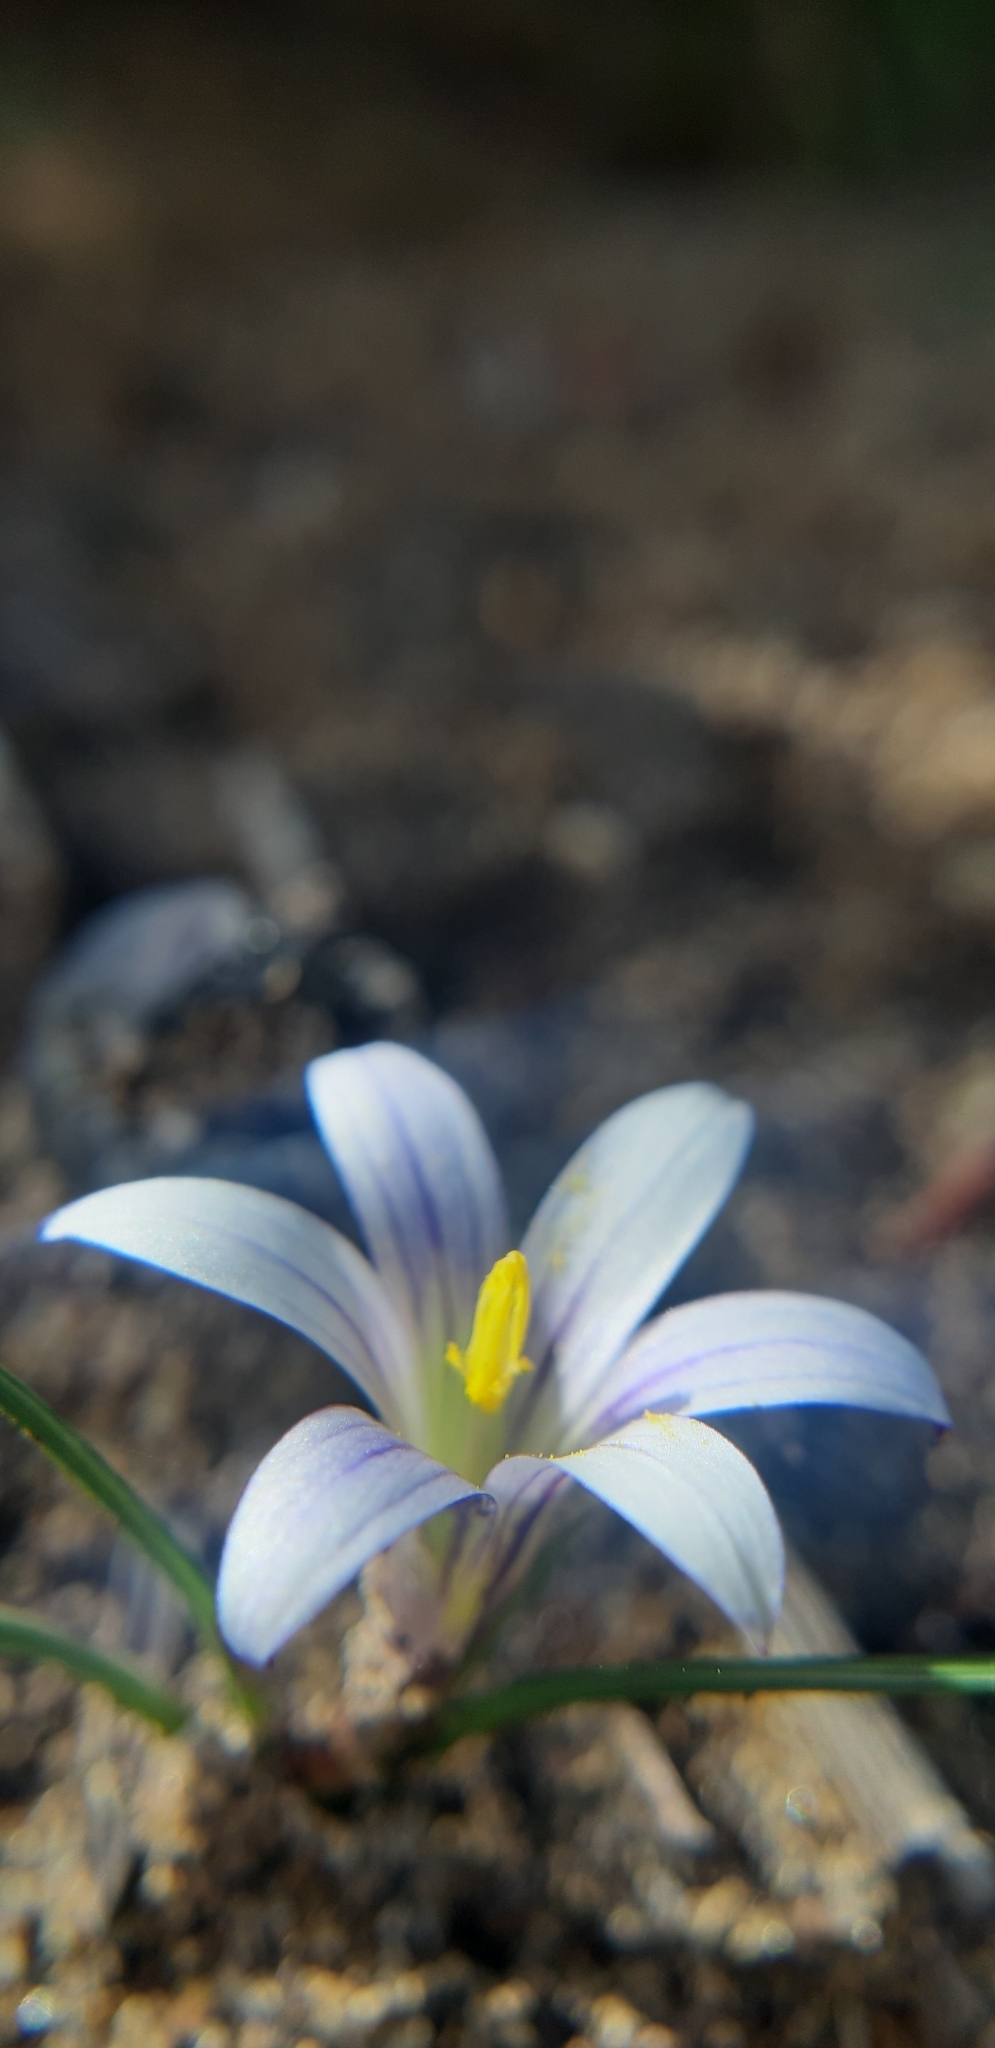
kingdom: Plantae
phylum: Tracheophyta
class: Liliopsida
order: Asparagales
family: Iridaceae
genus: Romulea
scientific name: Romulea columnae
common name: Sand-crocus
